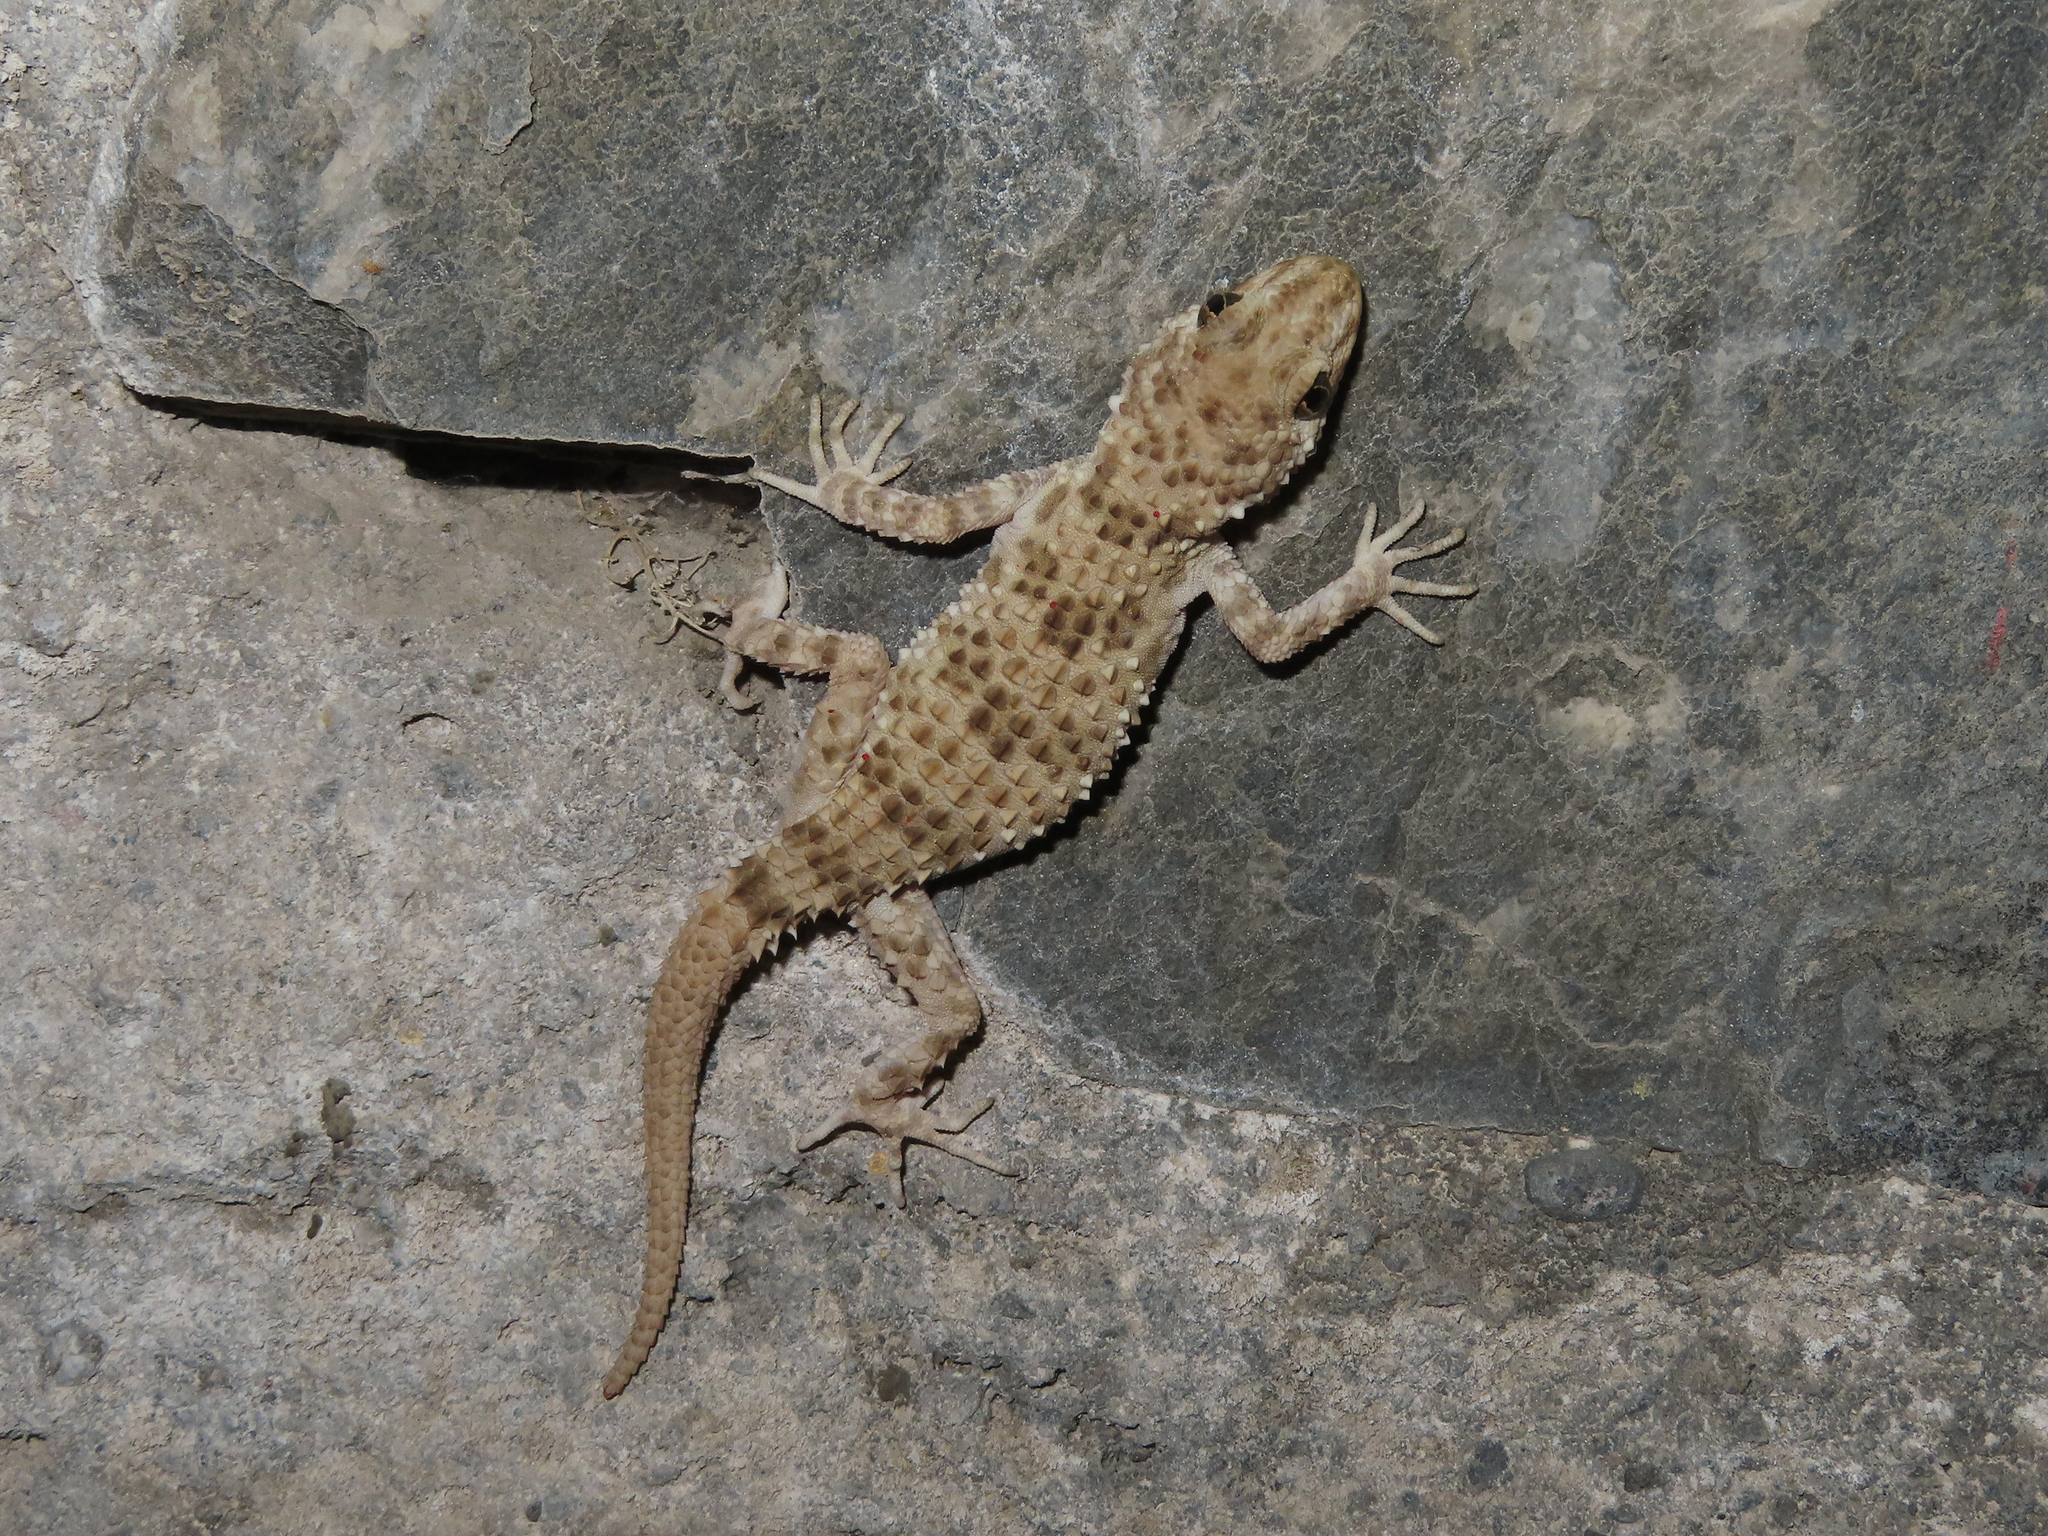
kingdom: Animalia
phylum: Chordata
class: Squamata
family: Gekkonidae
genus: Tenuidactylus
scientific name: Tenuidactylus caspius
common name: Caspian bent-toed gecko
